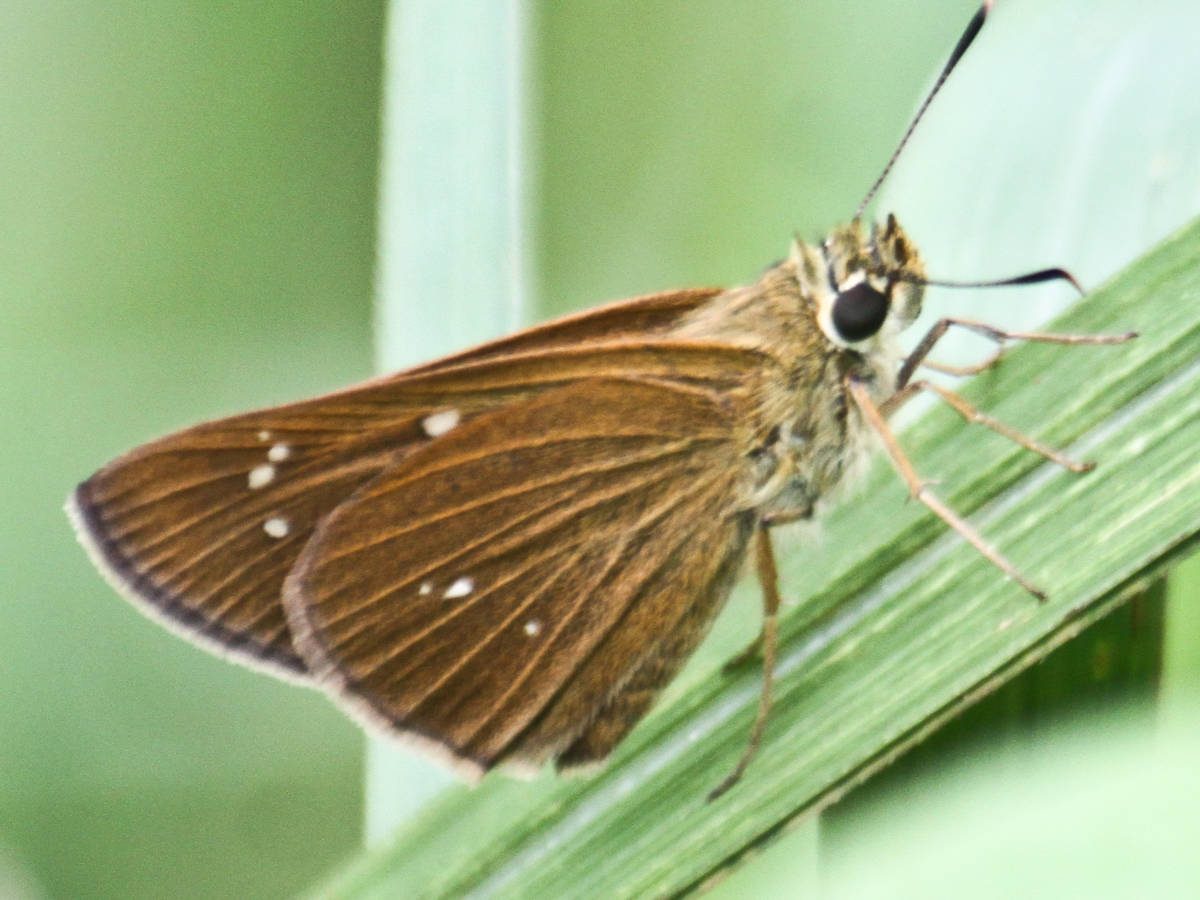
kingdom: Animalia
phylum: Arthropoda
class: Insecta
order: Lepidoptera
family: Hesperiidae
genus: Polytremis
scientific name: Polytremis lubricans
